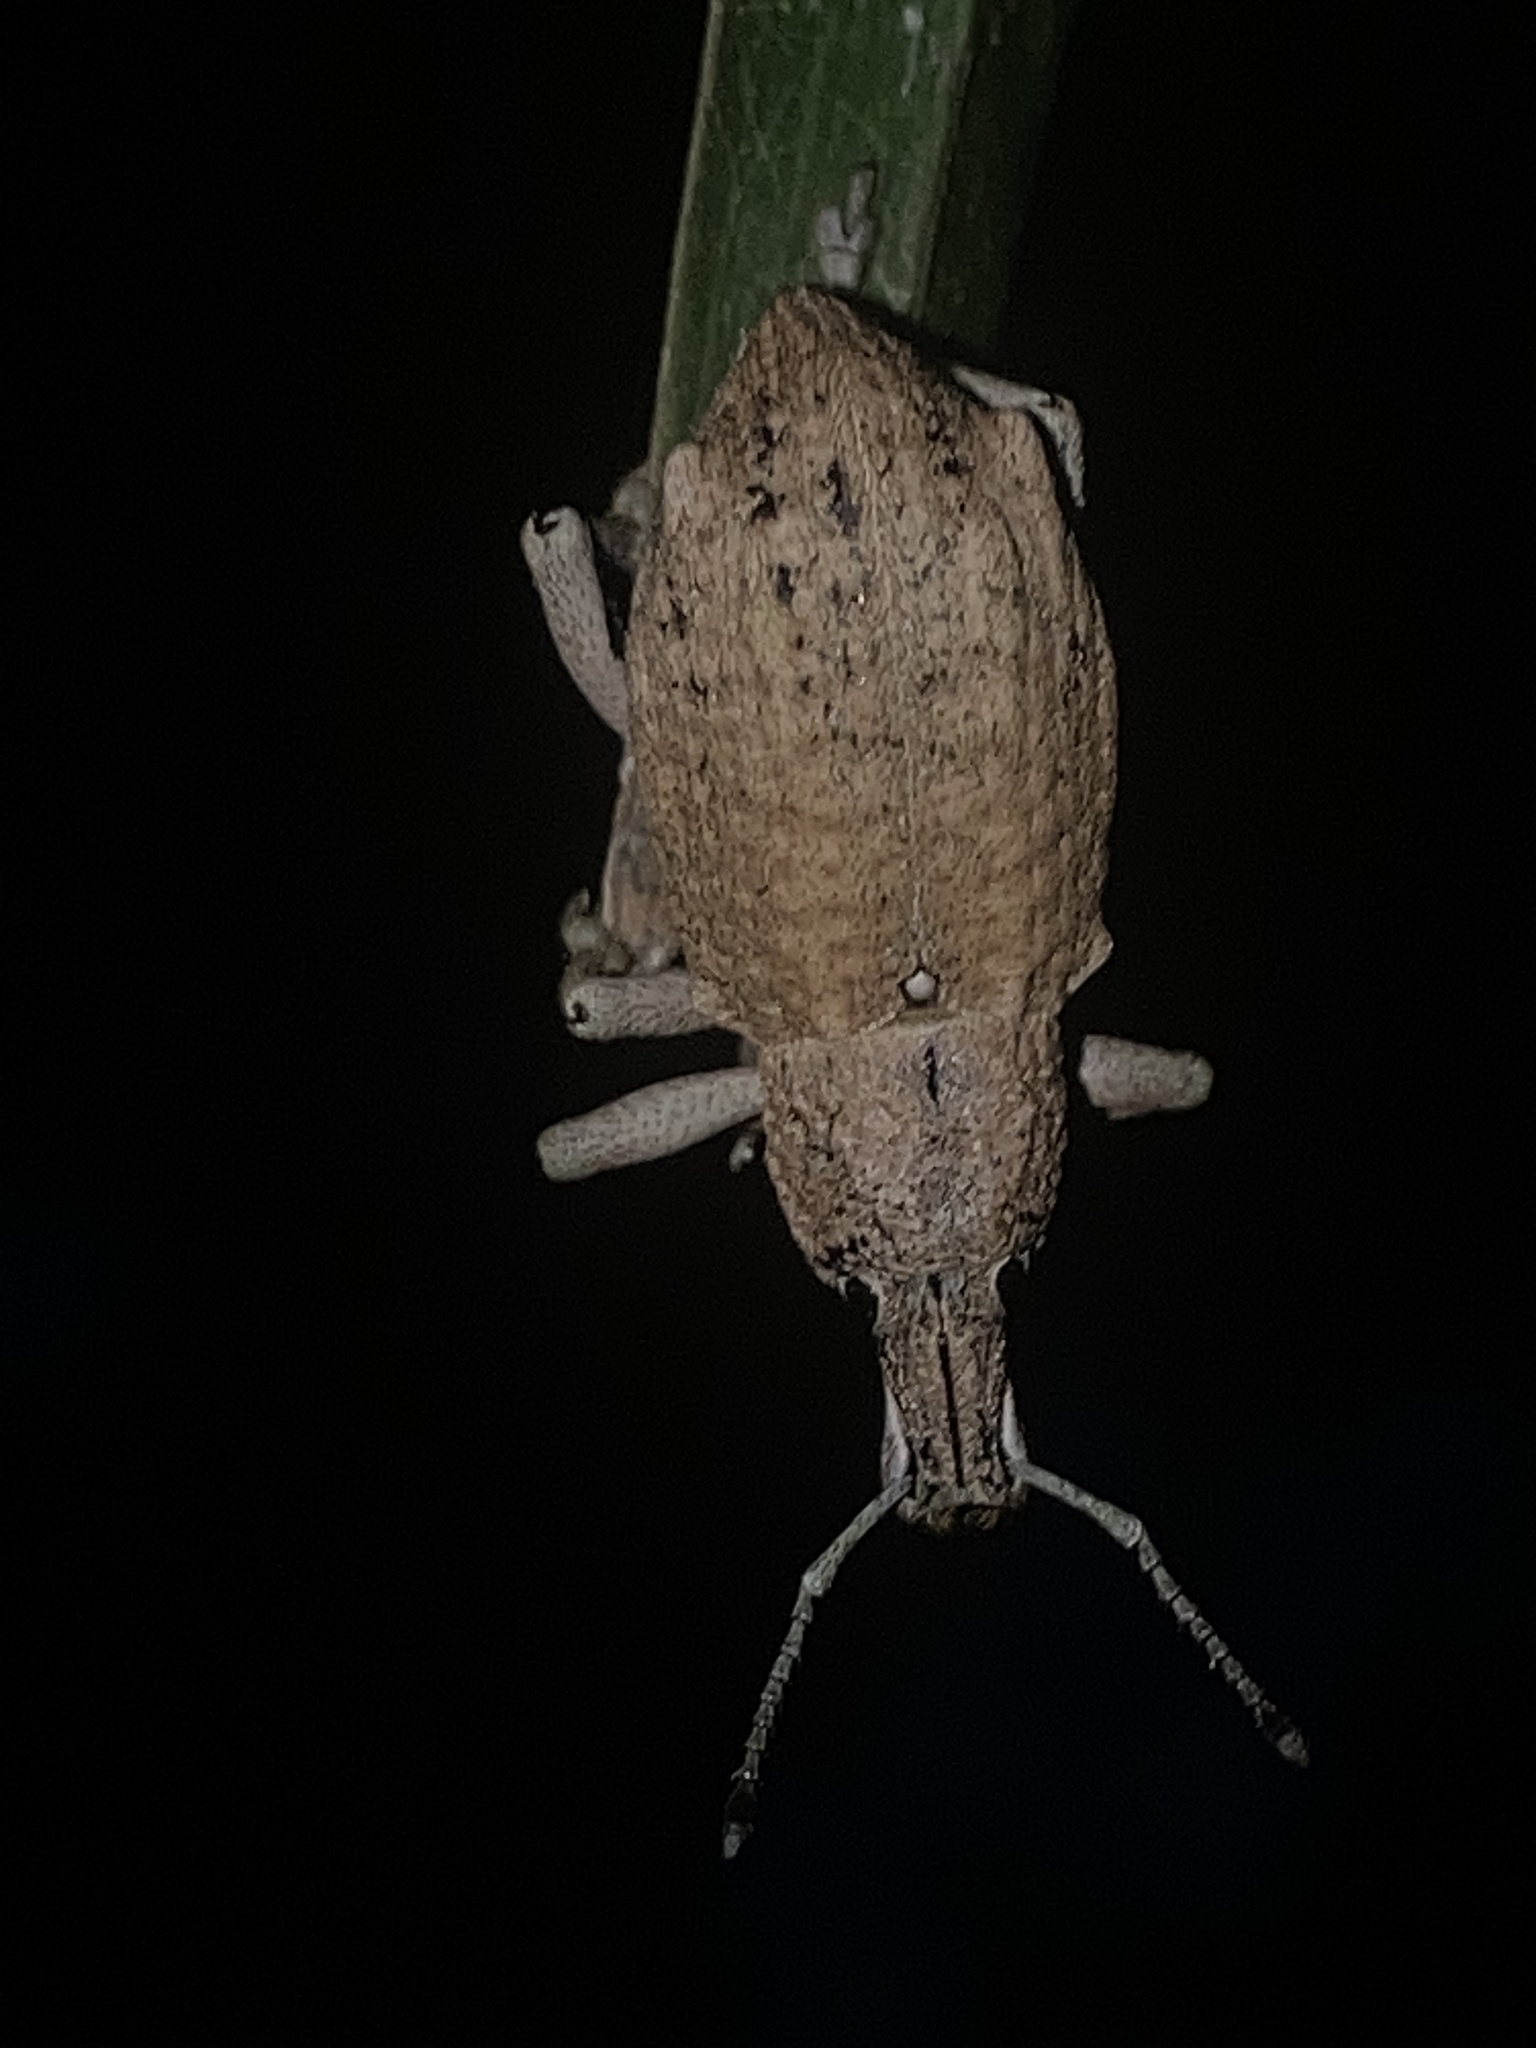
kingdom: Animalia
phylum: Arthropoda
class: Insecta
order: Coleoptera
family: Curculionidae
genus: Leptopius
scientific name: Leptopius robustus
